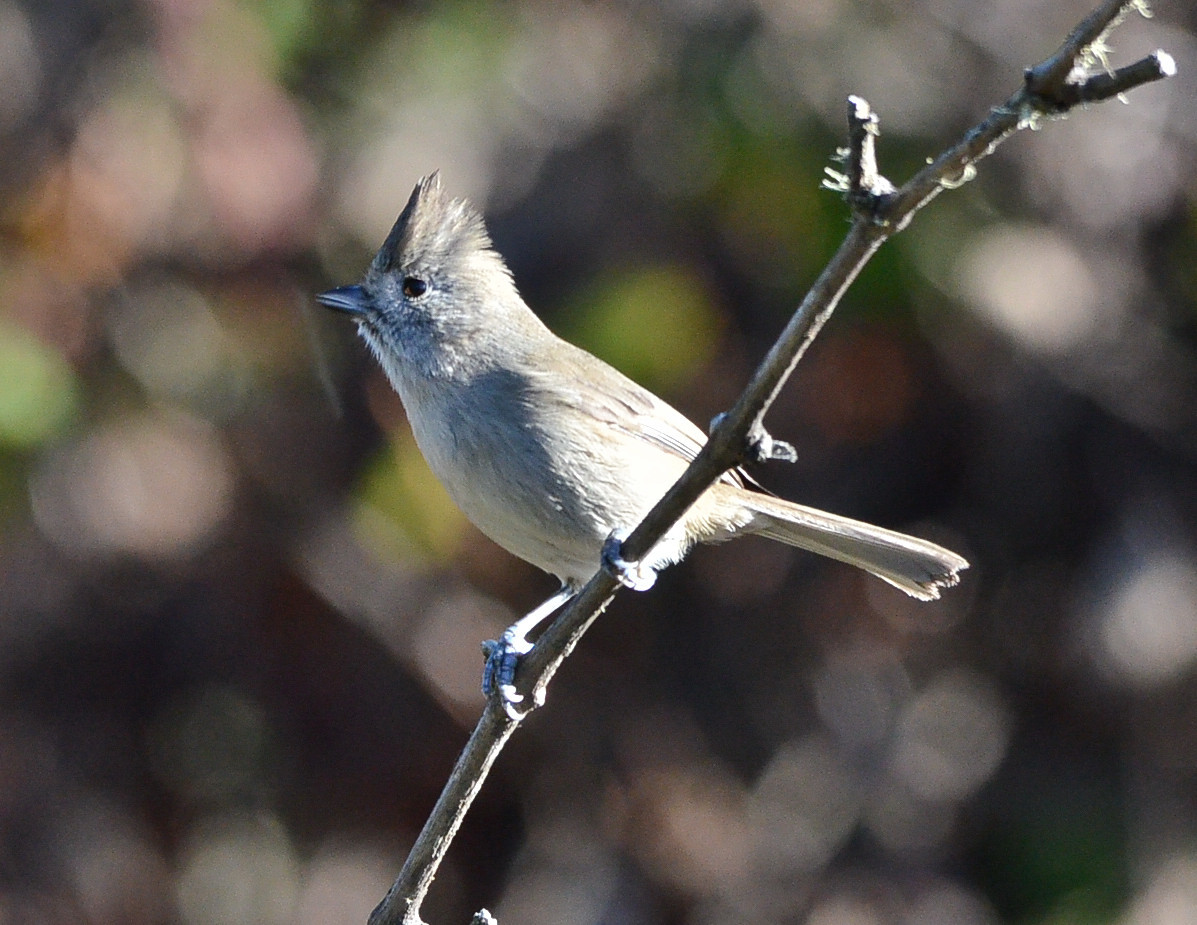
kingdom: Animalia
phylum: Chordata
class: Aves
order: Passeriformes
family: Paridae
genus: Baeolophus
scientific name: Baeolophus inornatus
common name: Oak titmouse
